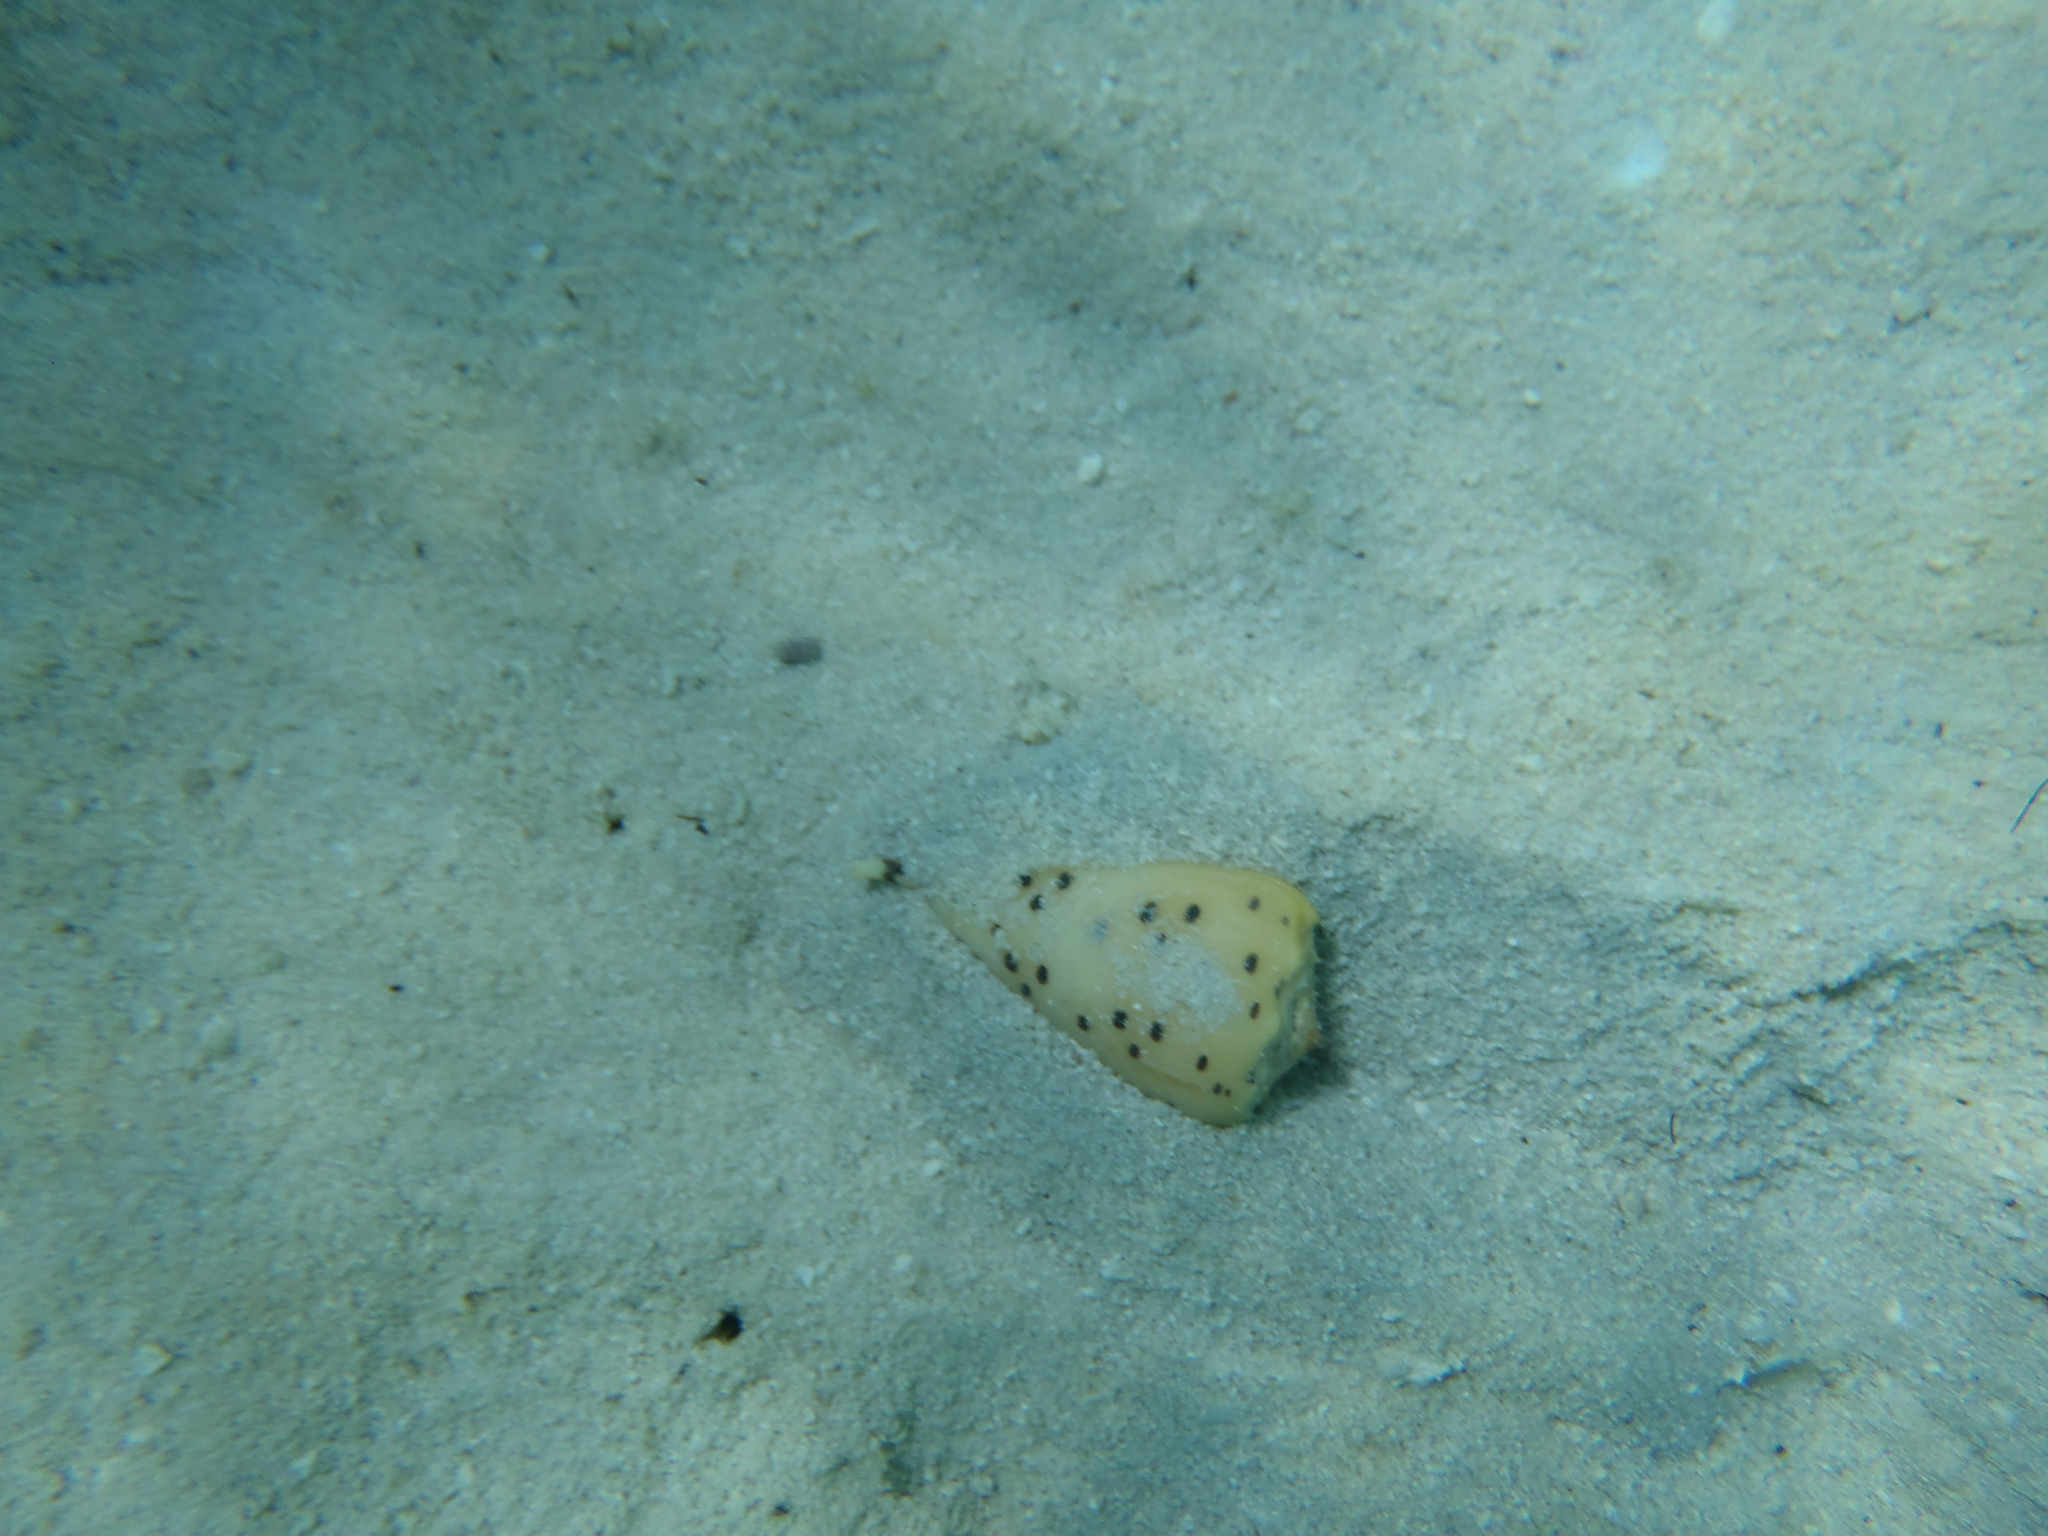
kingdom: Animalia
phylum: Mollusca
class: Gastropoda
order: Neogastropoda
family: Conidae
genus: Conus
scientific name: Conus pulicarius
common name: Flea-bite cone
